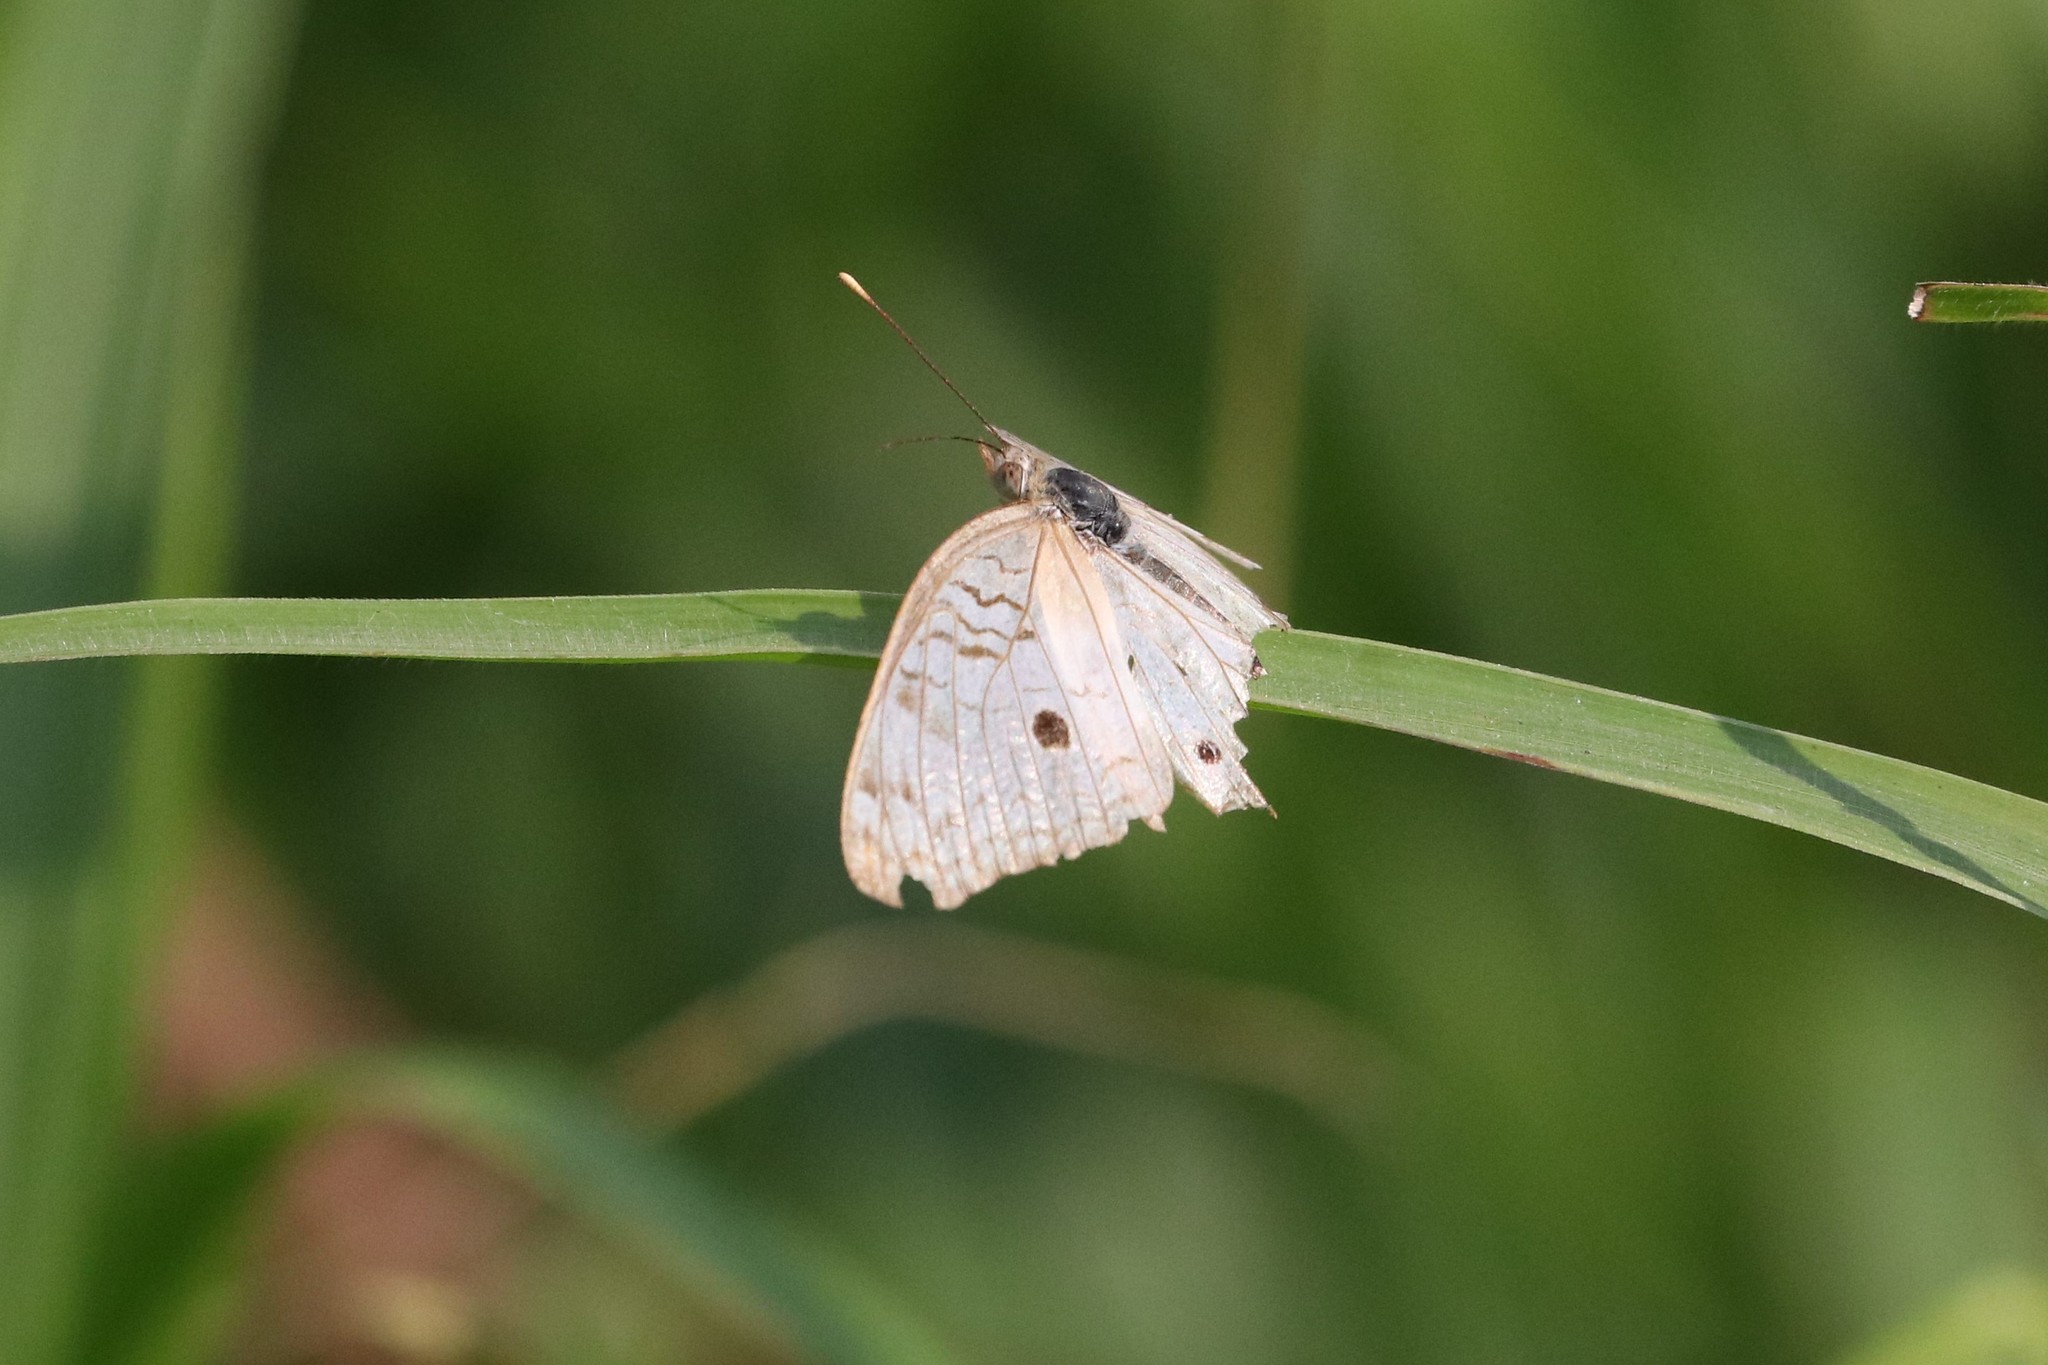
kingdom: Animalia
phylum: Arthropoda
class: Insecta
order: Lepidoptera
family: Nymphalidae
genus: Anartia
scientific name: Anartia jatrophae
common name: White peacock
